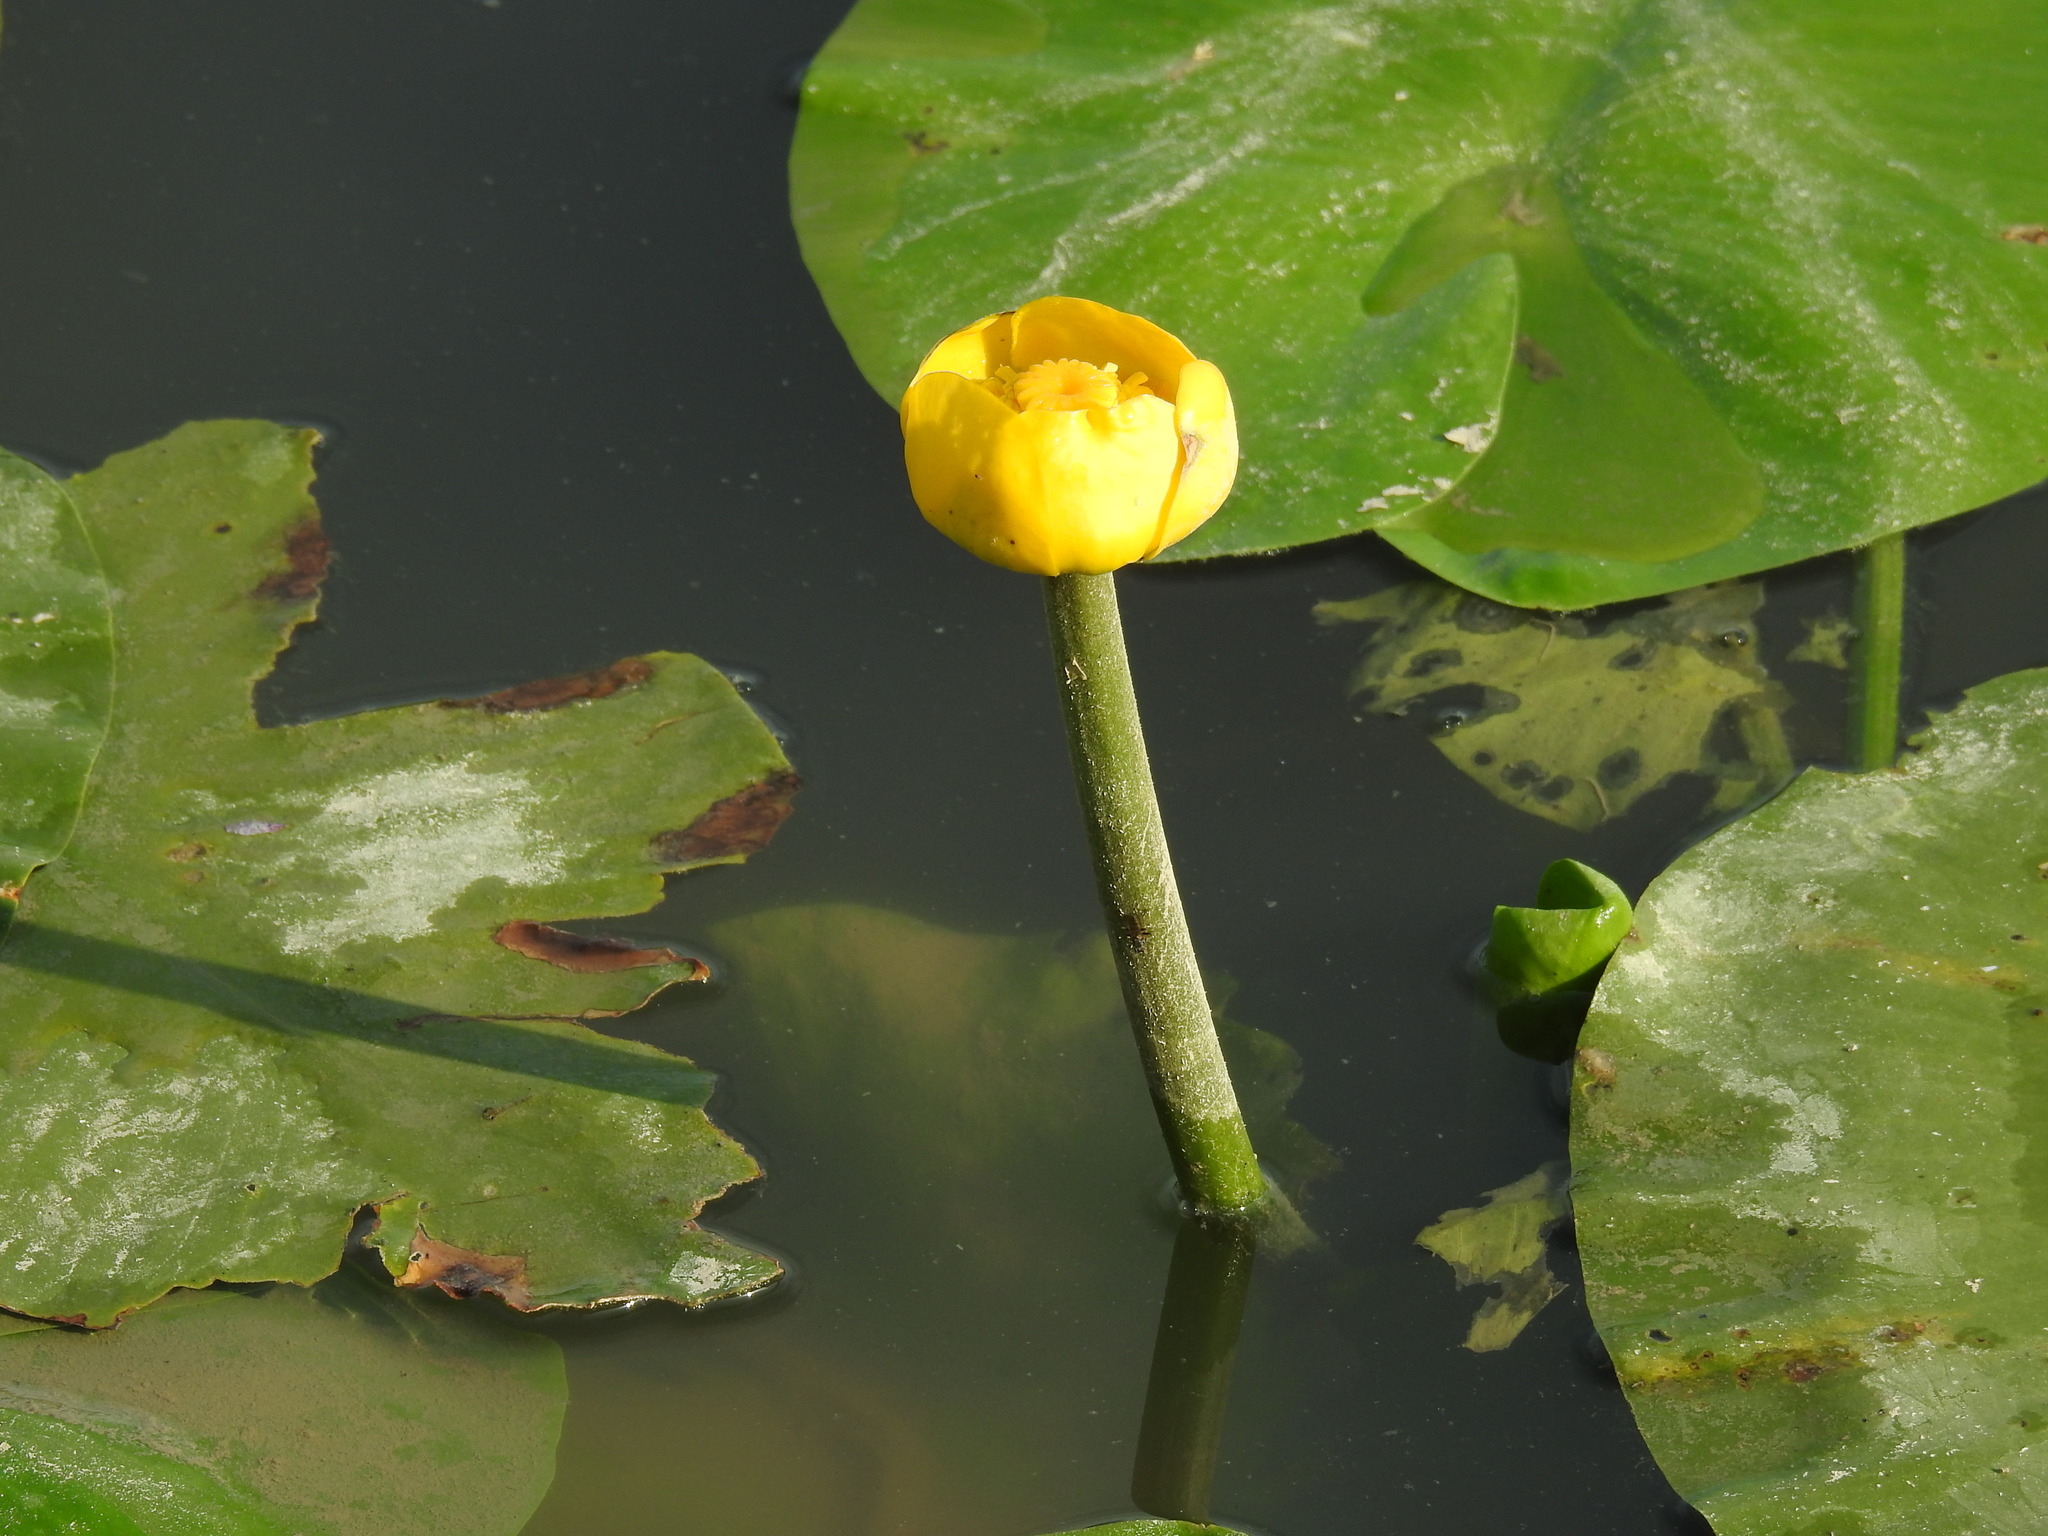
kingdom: Plantae
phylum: Tracheophyta
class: Magnoliopsida
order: Nymphaeales
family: Nymphaeaceae
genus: Nuphar
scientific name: Nuphar lutea
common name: Yellow water-lily
